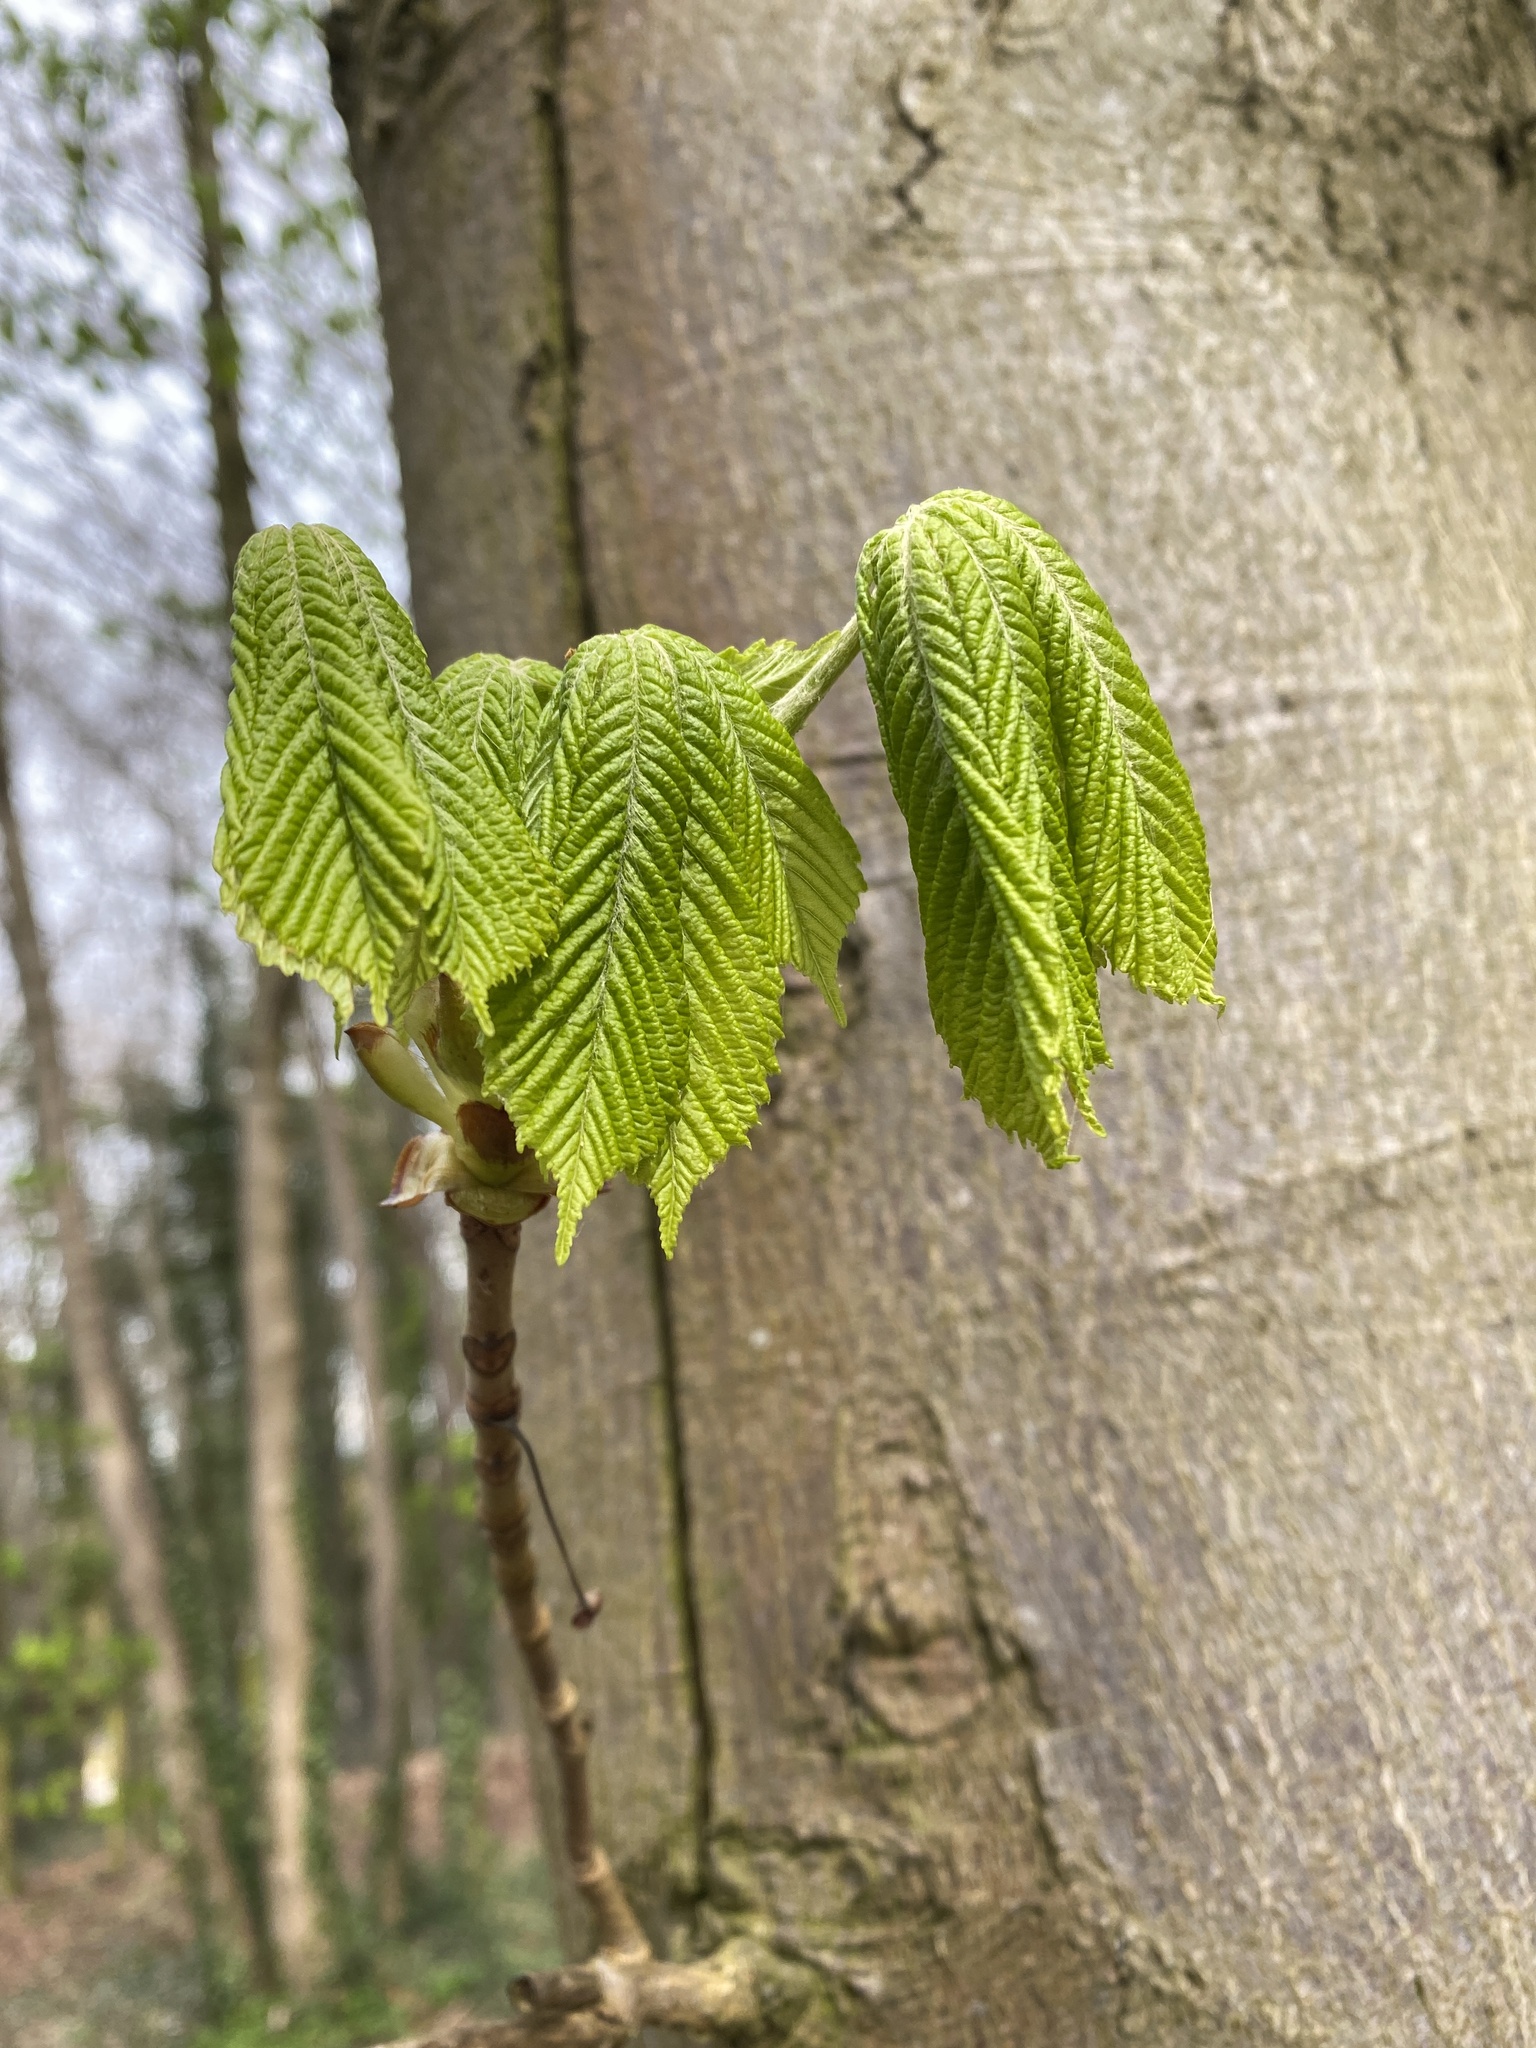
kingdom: Plantae
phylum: Tracheophyta
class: Magnoliopsida
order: Sapindales
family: Sapindaceae
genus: Aesculus
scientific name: Aesculus hippocastanum
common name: Horse-chestnut
